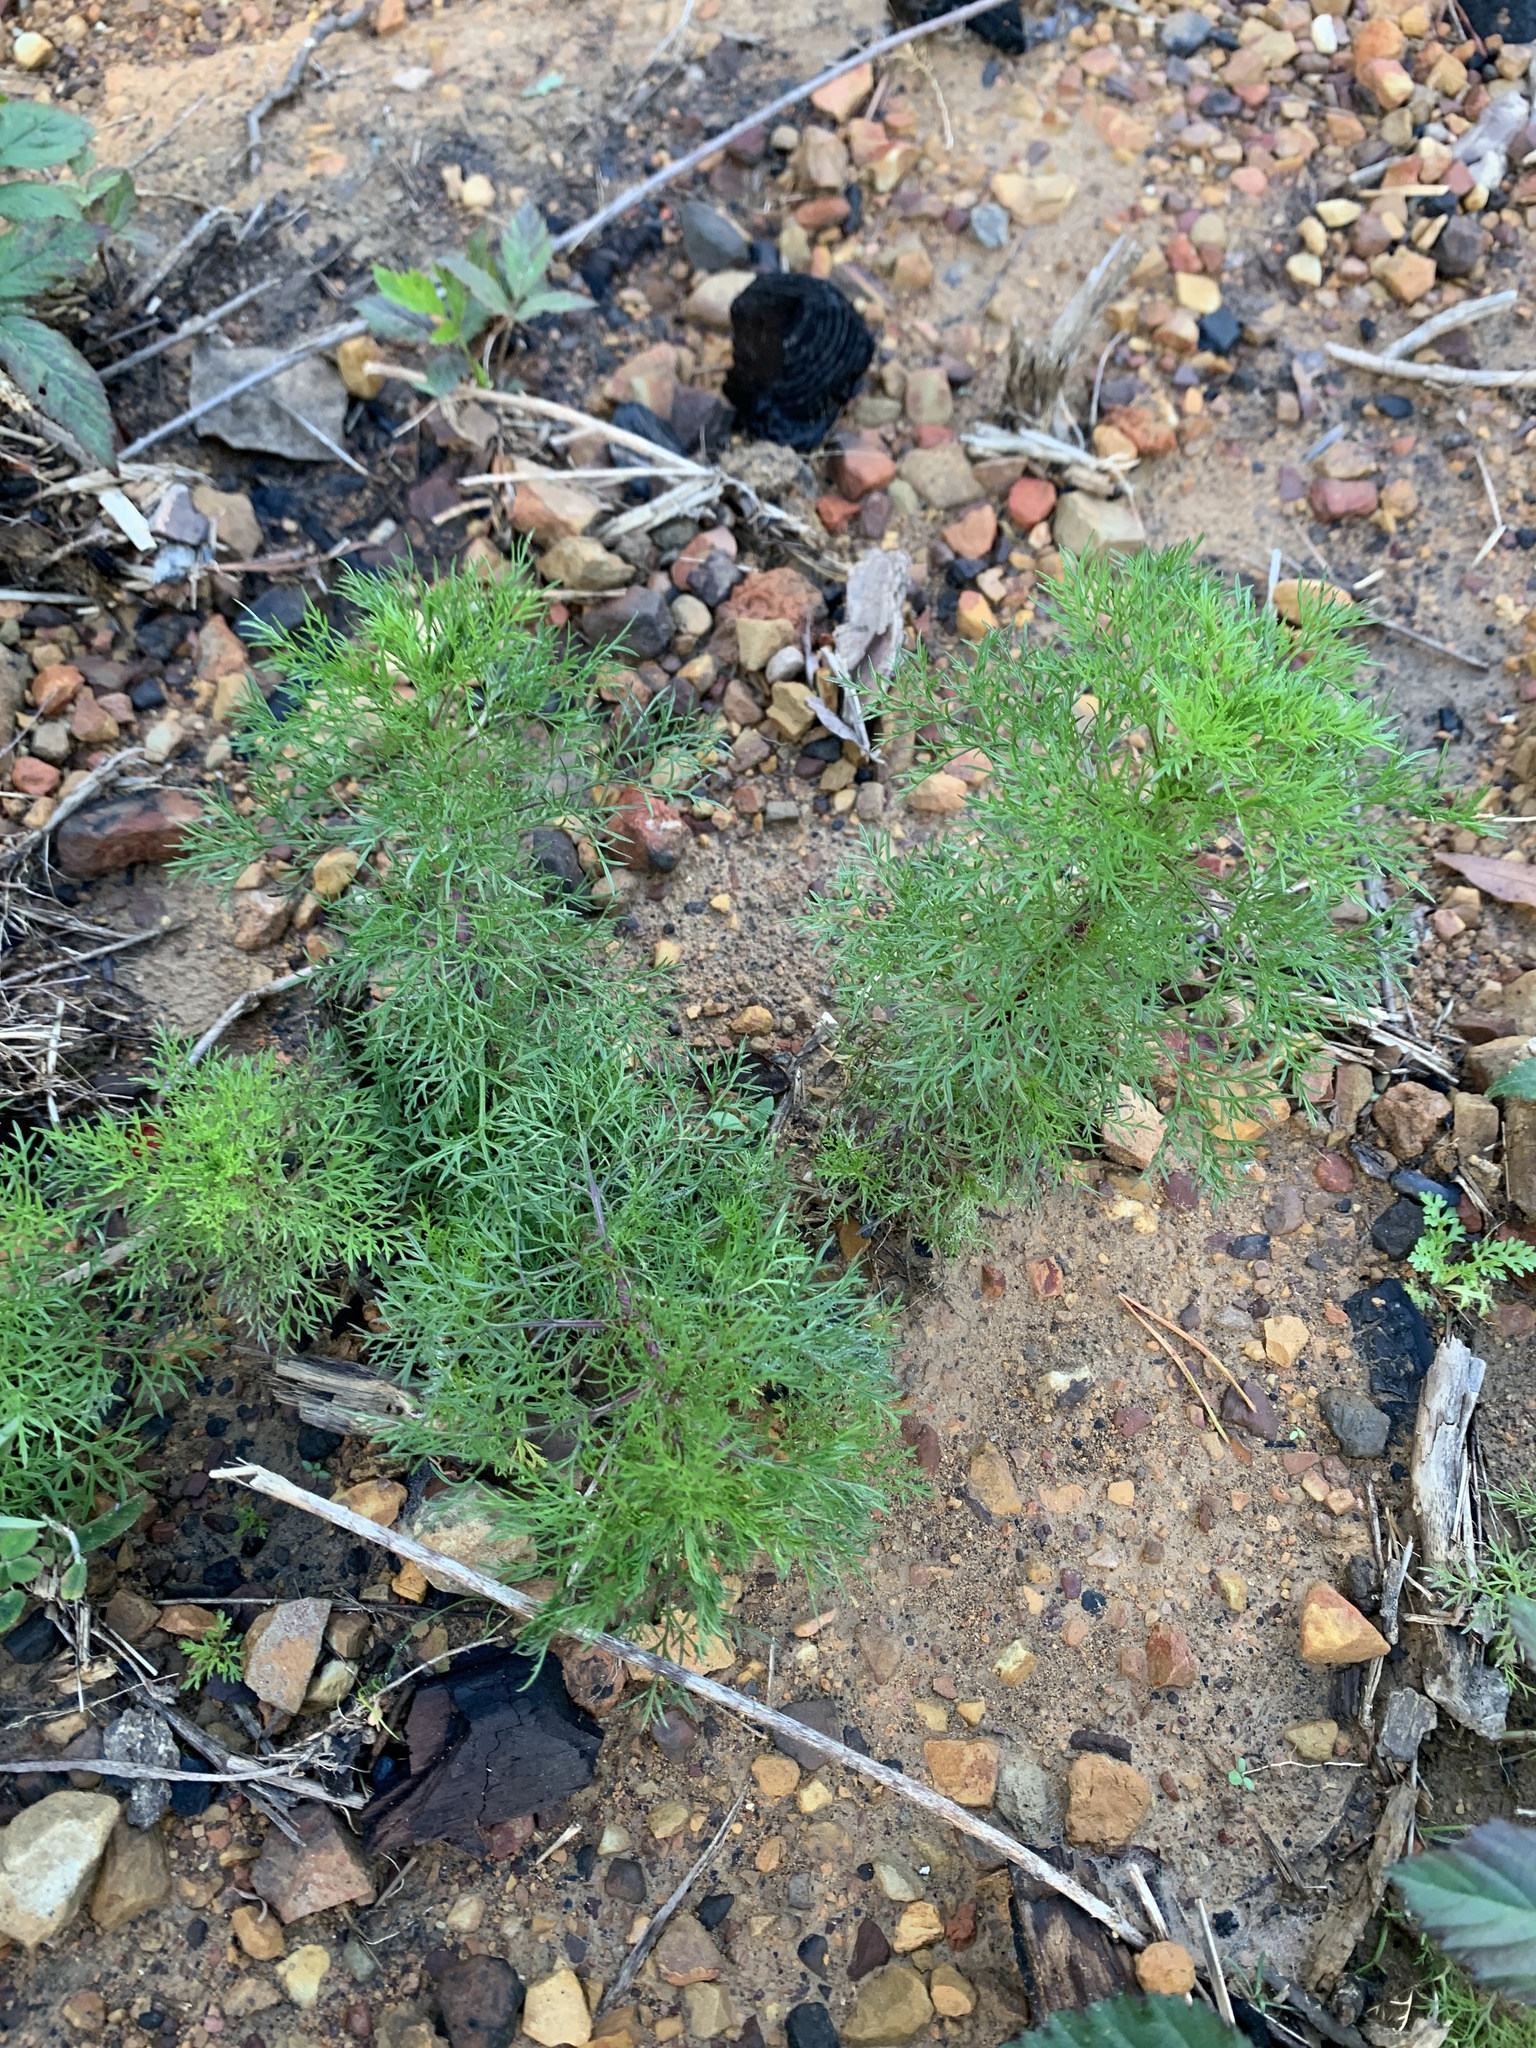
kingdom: Plantae
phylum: Tracheophyta
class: Magnoliopsida
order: Asterales
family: Asteraceae
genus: Eupatorium
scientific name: Eupatorium capillifolium
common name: Dog-fennel
